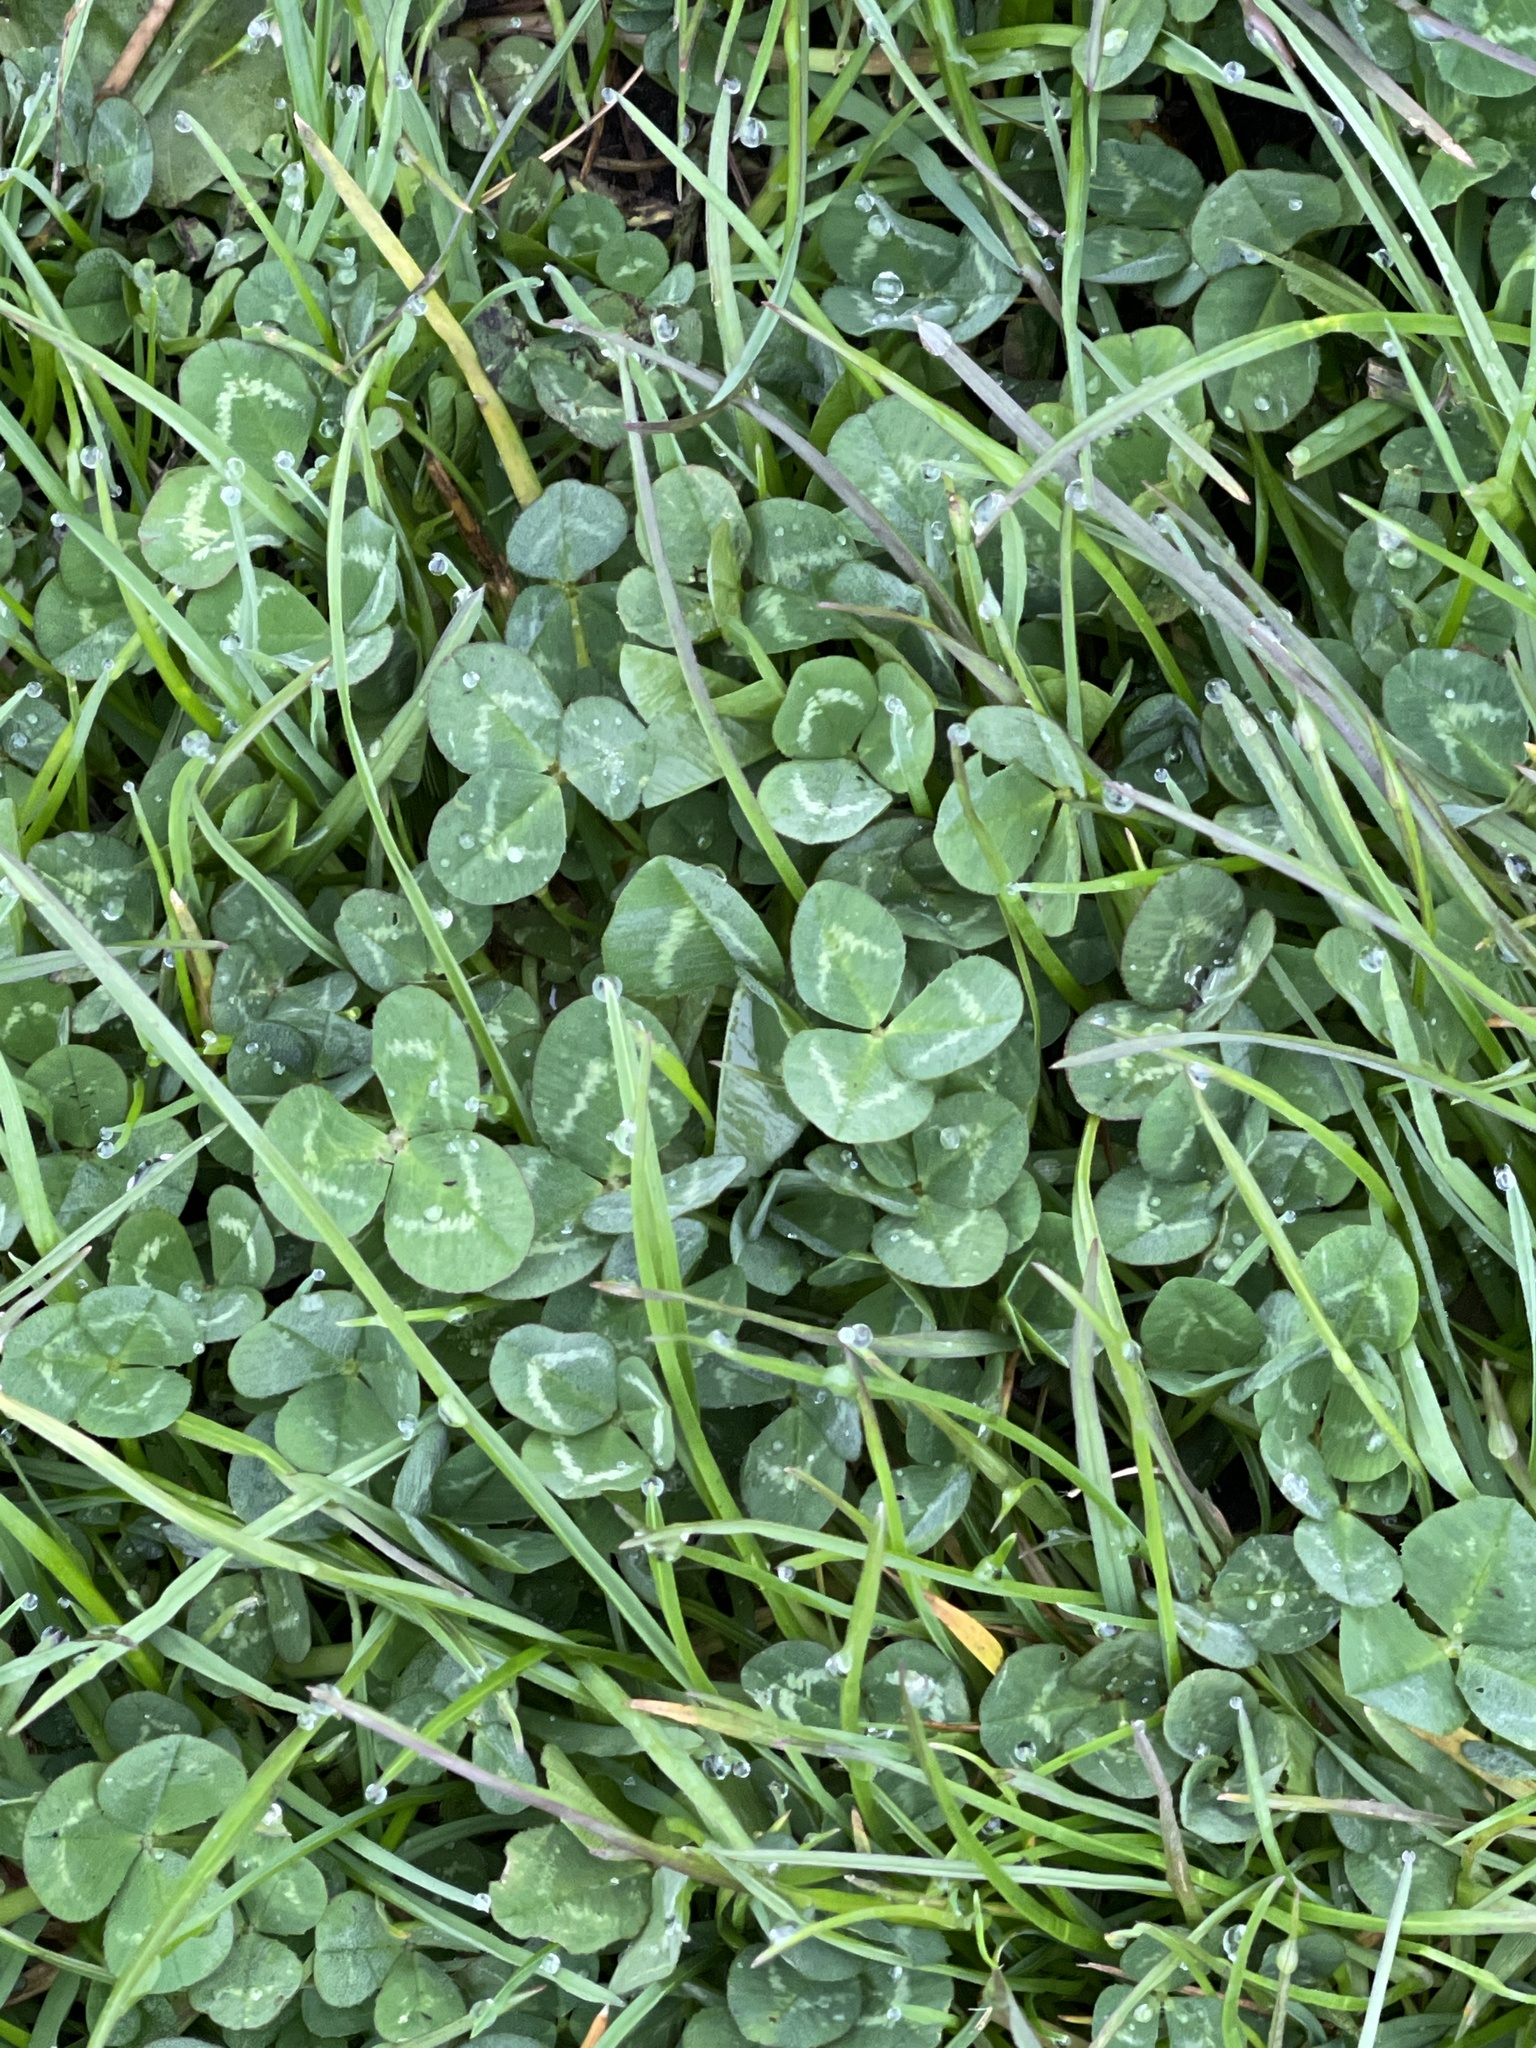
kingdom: Plantae
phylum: Tracheophyta
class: Magnoliopsida
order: Fabales
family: Fabaceae
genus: Trifolium
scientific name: Trifolium repens
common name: White clover
